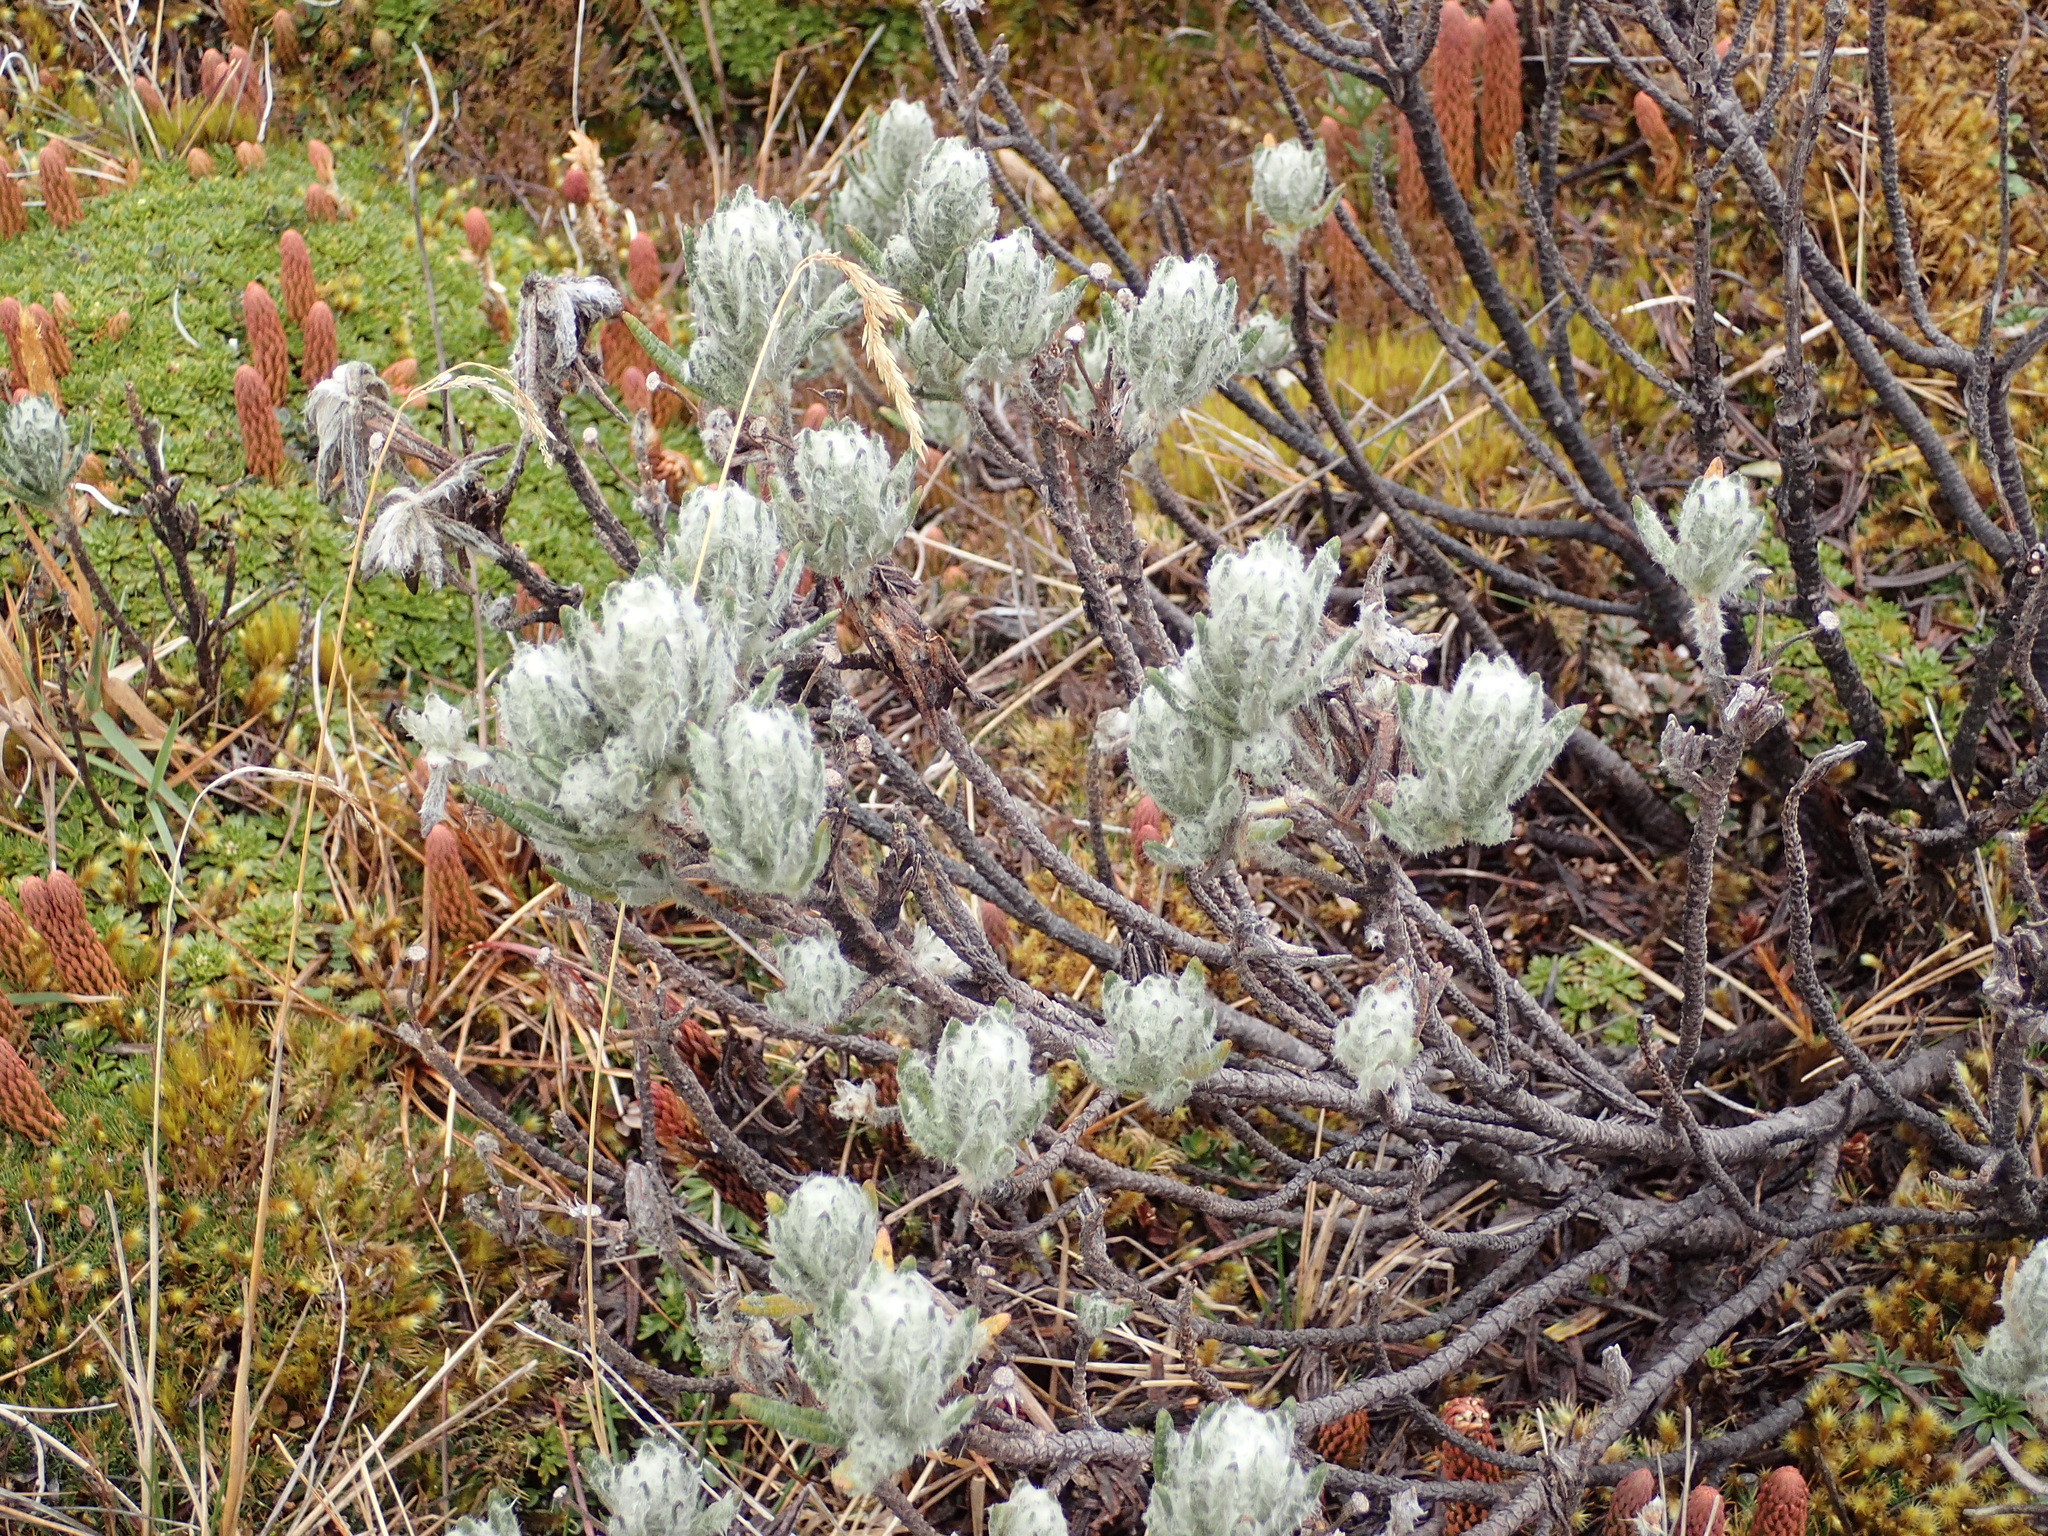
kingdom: Plantae
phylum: Tracheophyta
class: Magnoliopsida
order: Asterales
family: Asteraceae
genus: Linochilus
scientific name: Linochilus rupestris
